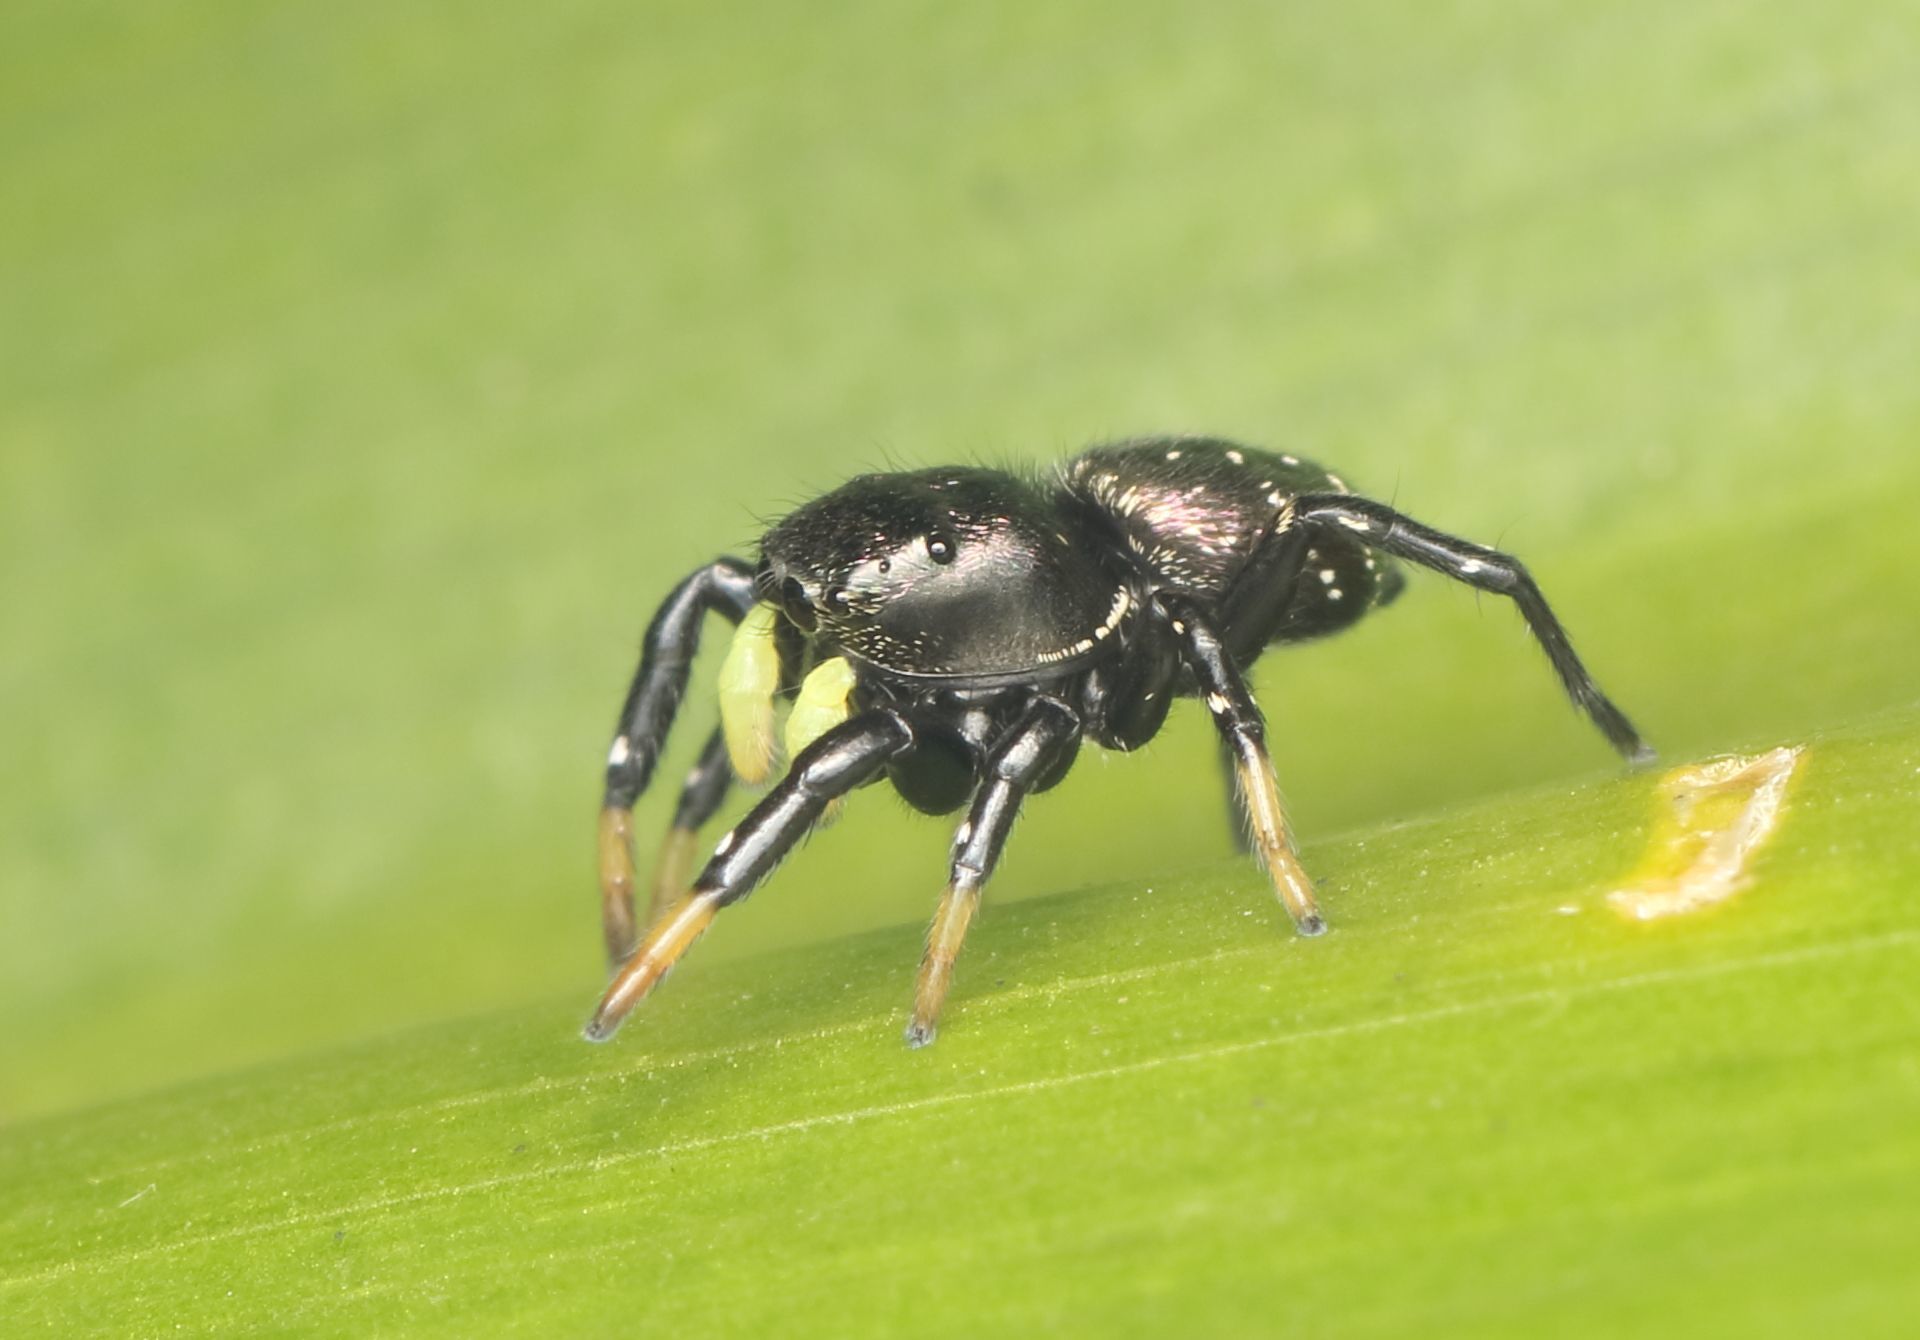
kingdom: Animalia
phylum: Arthropoda
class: Arachnida
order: Araneae
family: Salticidae
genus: Heliophanus
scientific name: Heliophanus
